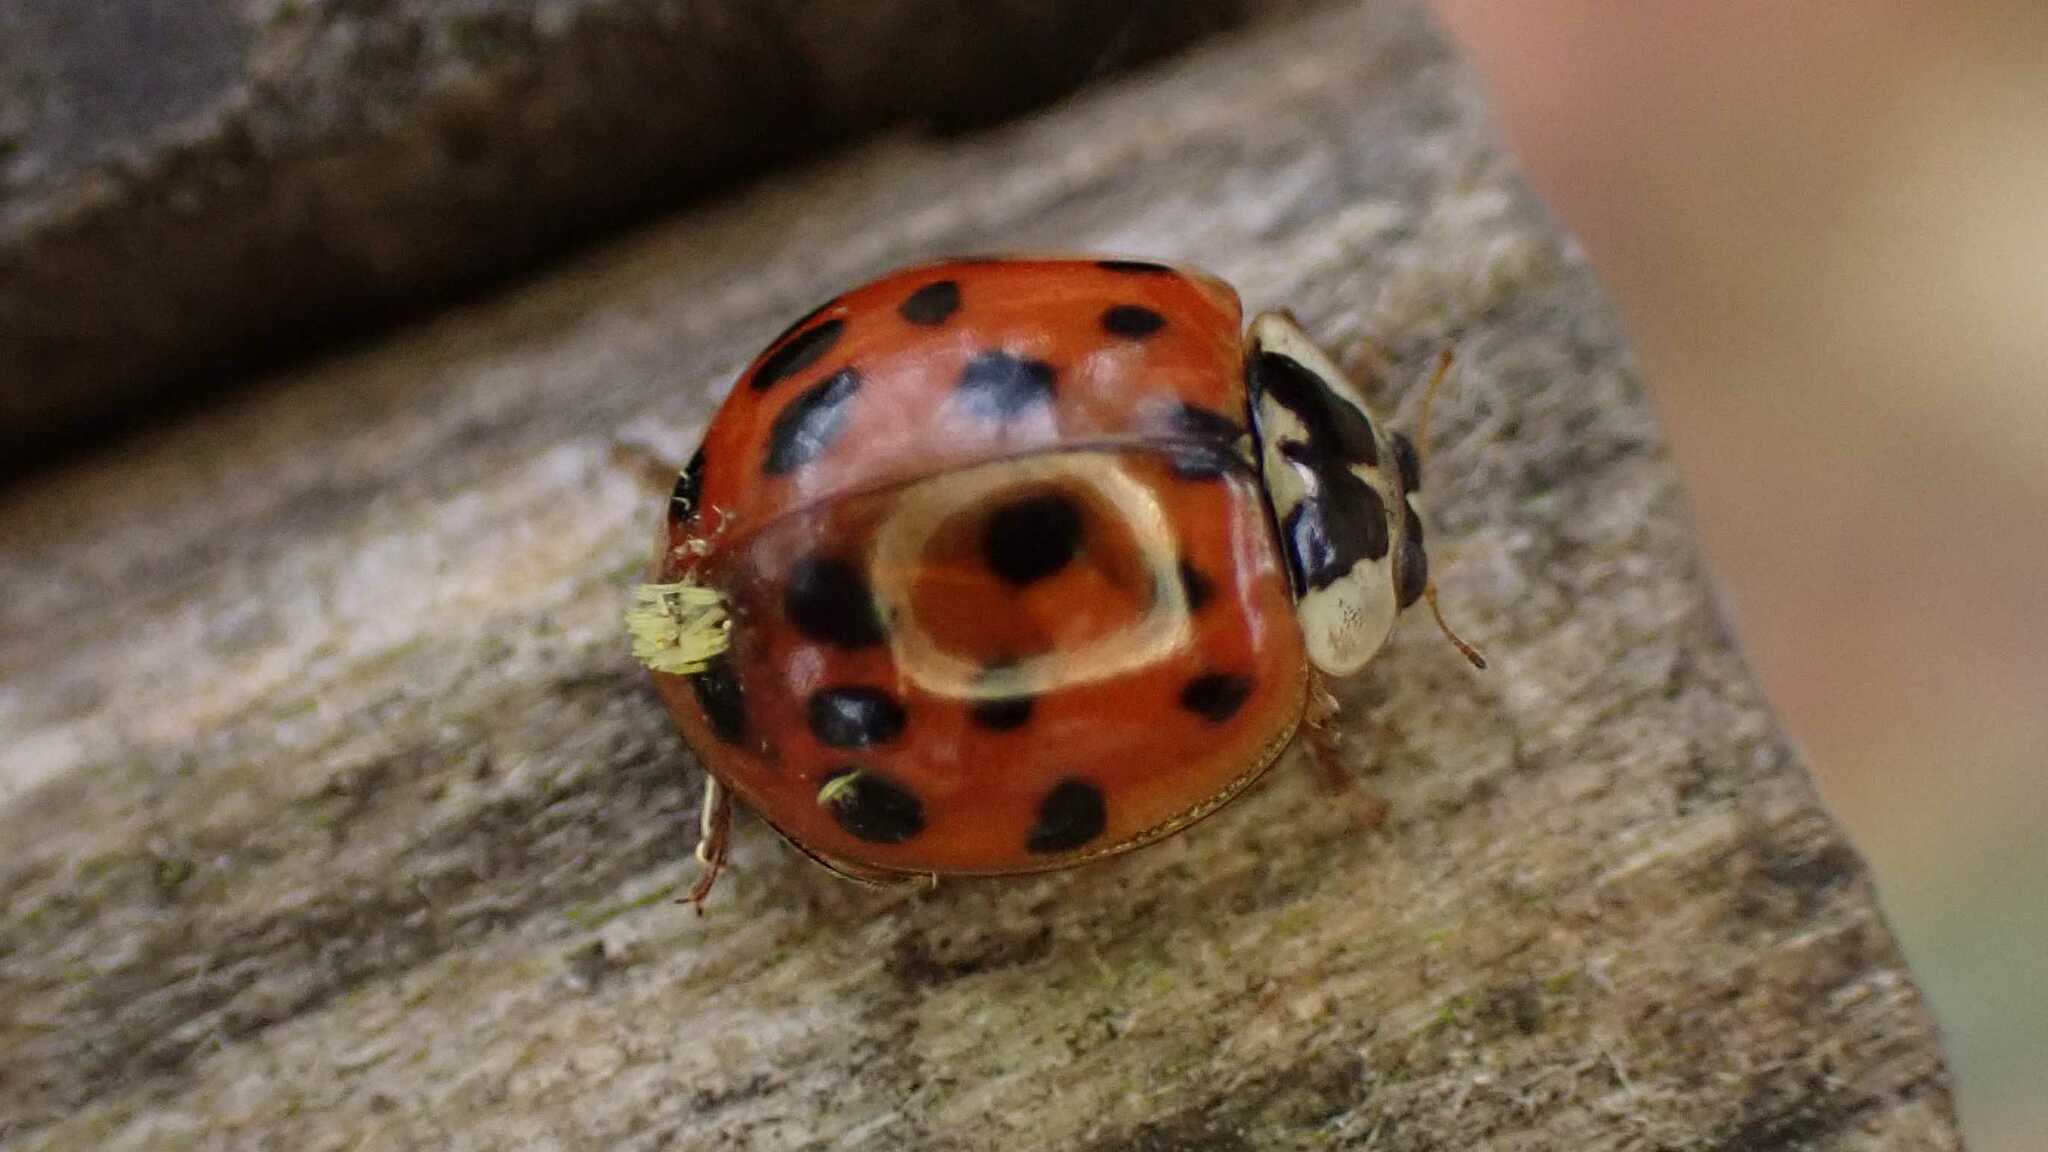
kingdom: Animalia
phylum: Arthropoda
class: Insecta
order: Coleoptera
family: Coccinellidae
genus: Harmonia
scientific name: Harmonia axyridis
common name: Harlequin ladybird
